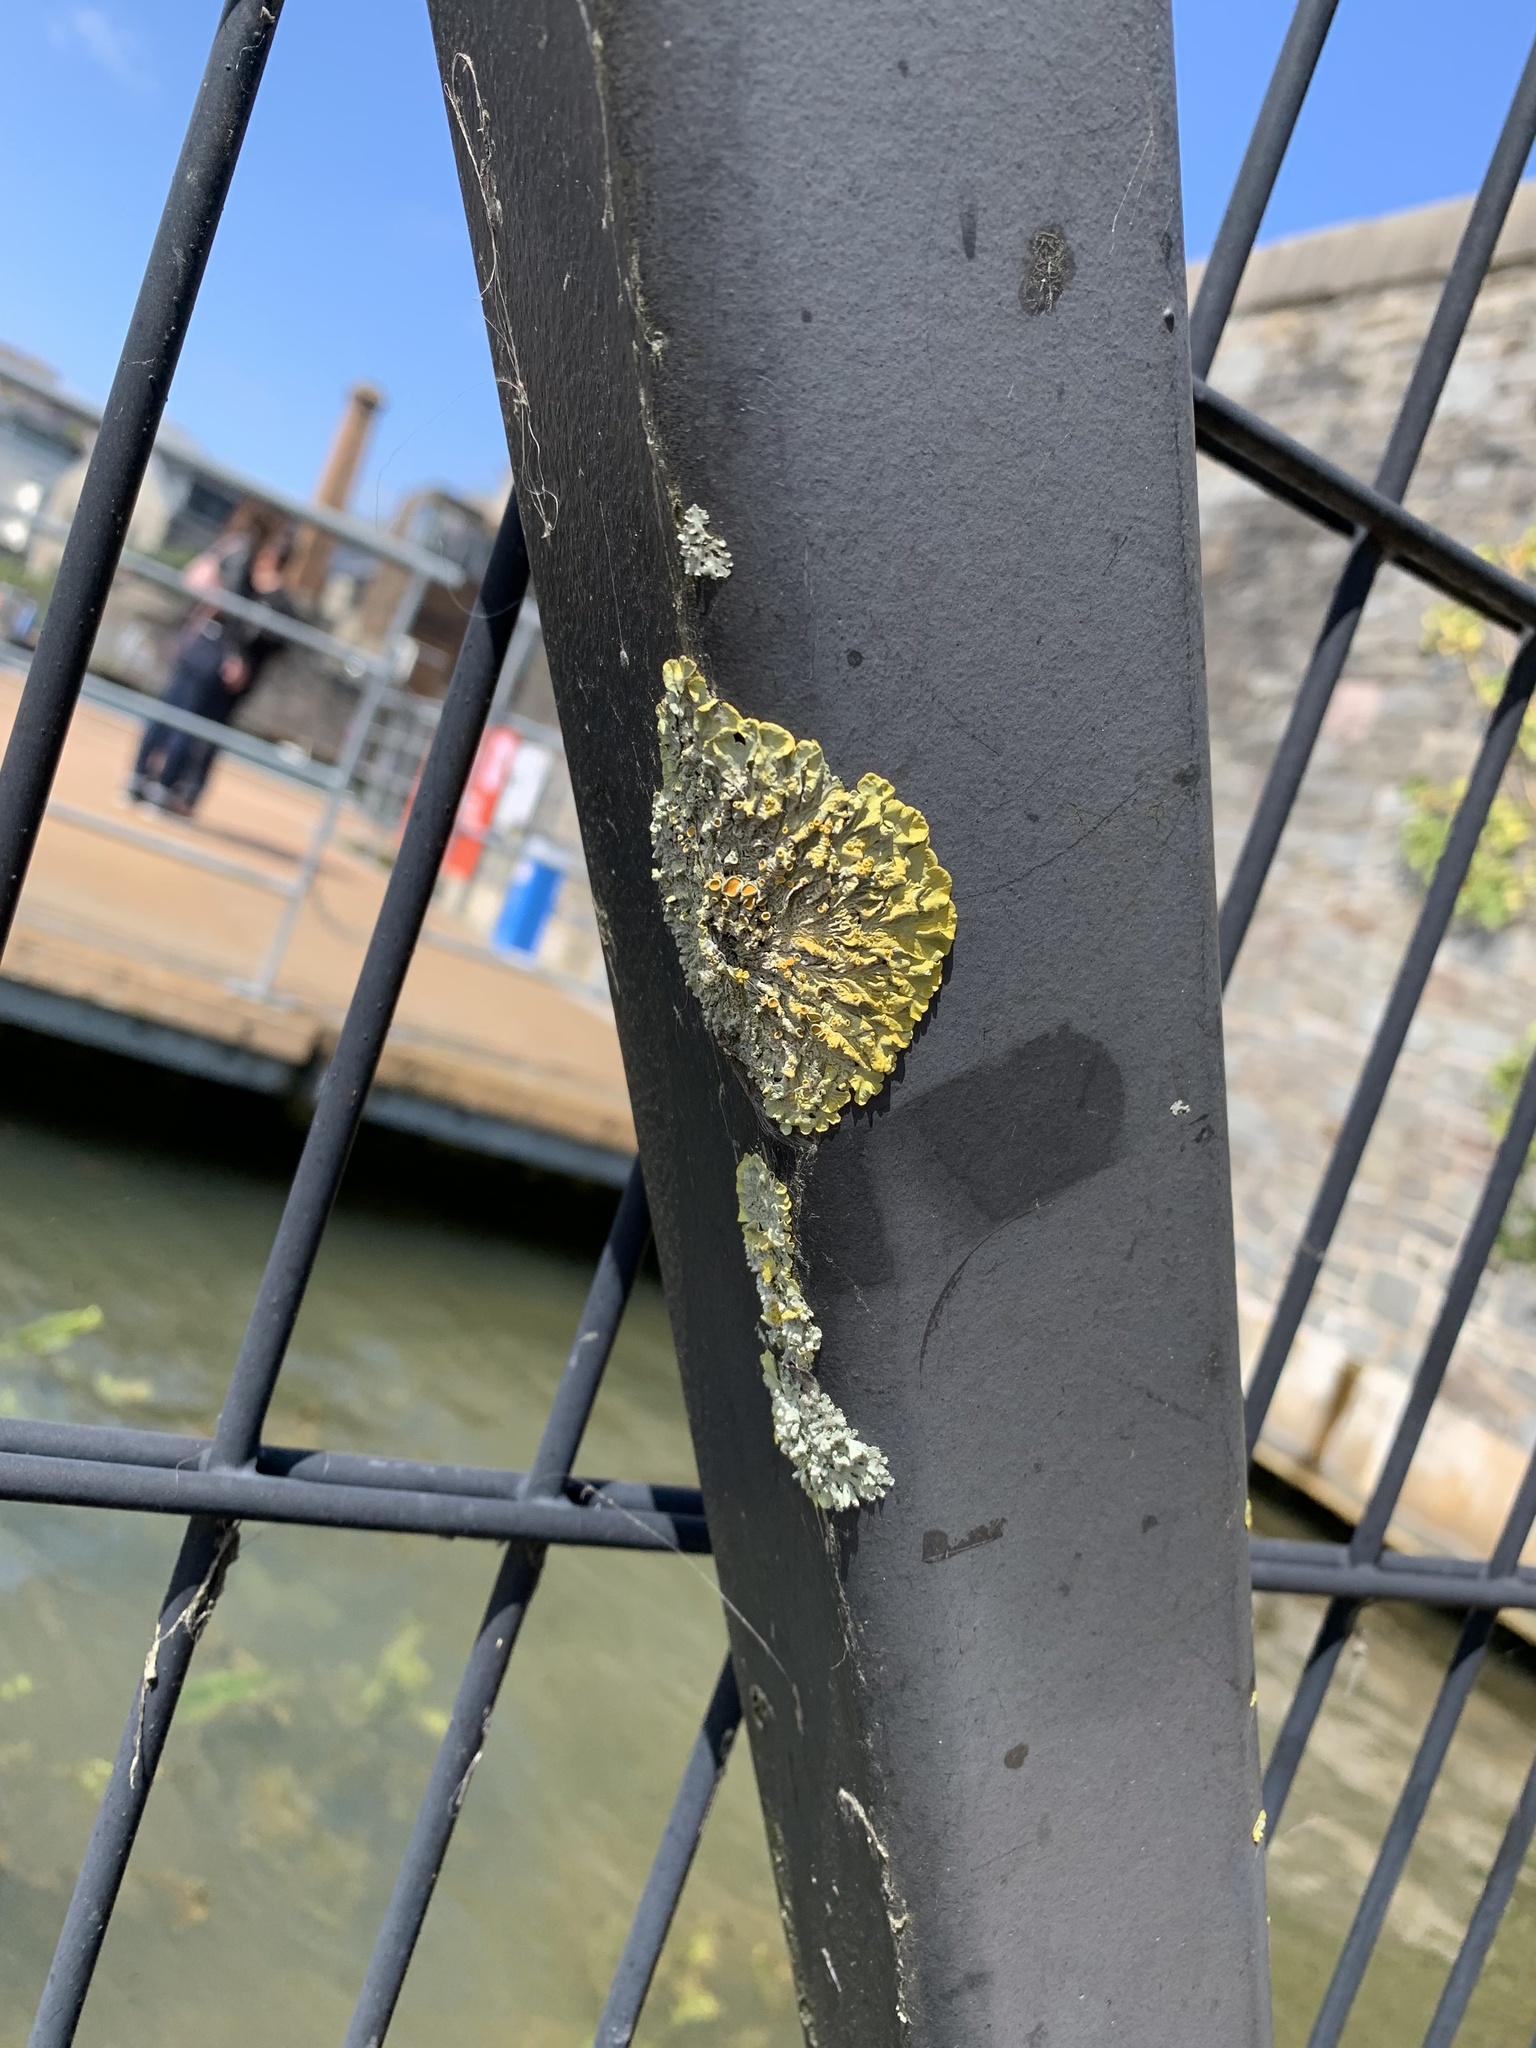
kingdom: Fungi
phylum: Ascomycota
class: Lecanoromycetes
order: Teloschistales
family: Teloschistaceae
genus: Xanthoria
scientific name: Xanthoria parietina
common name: Common orange lichen
